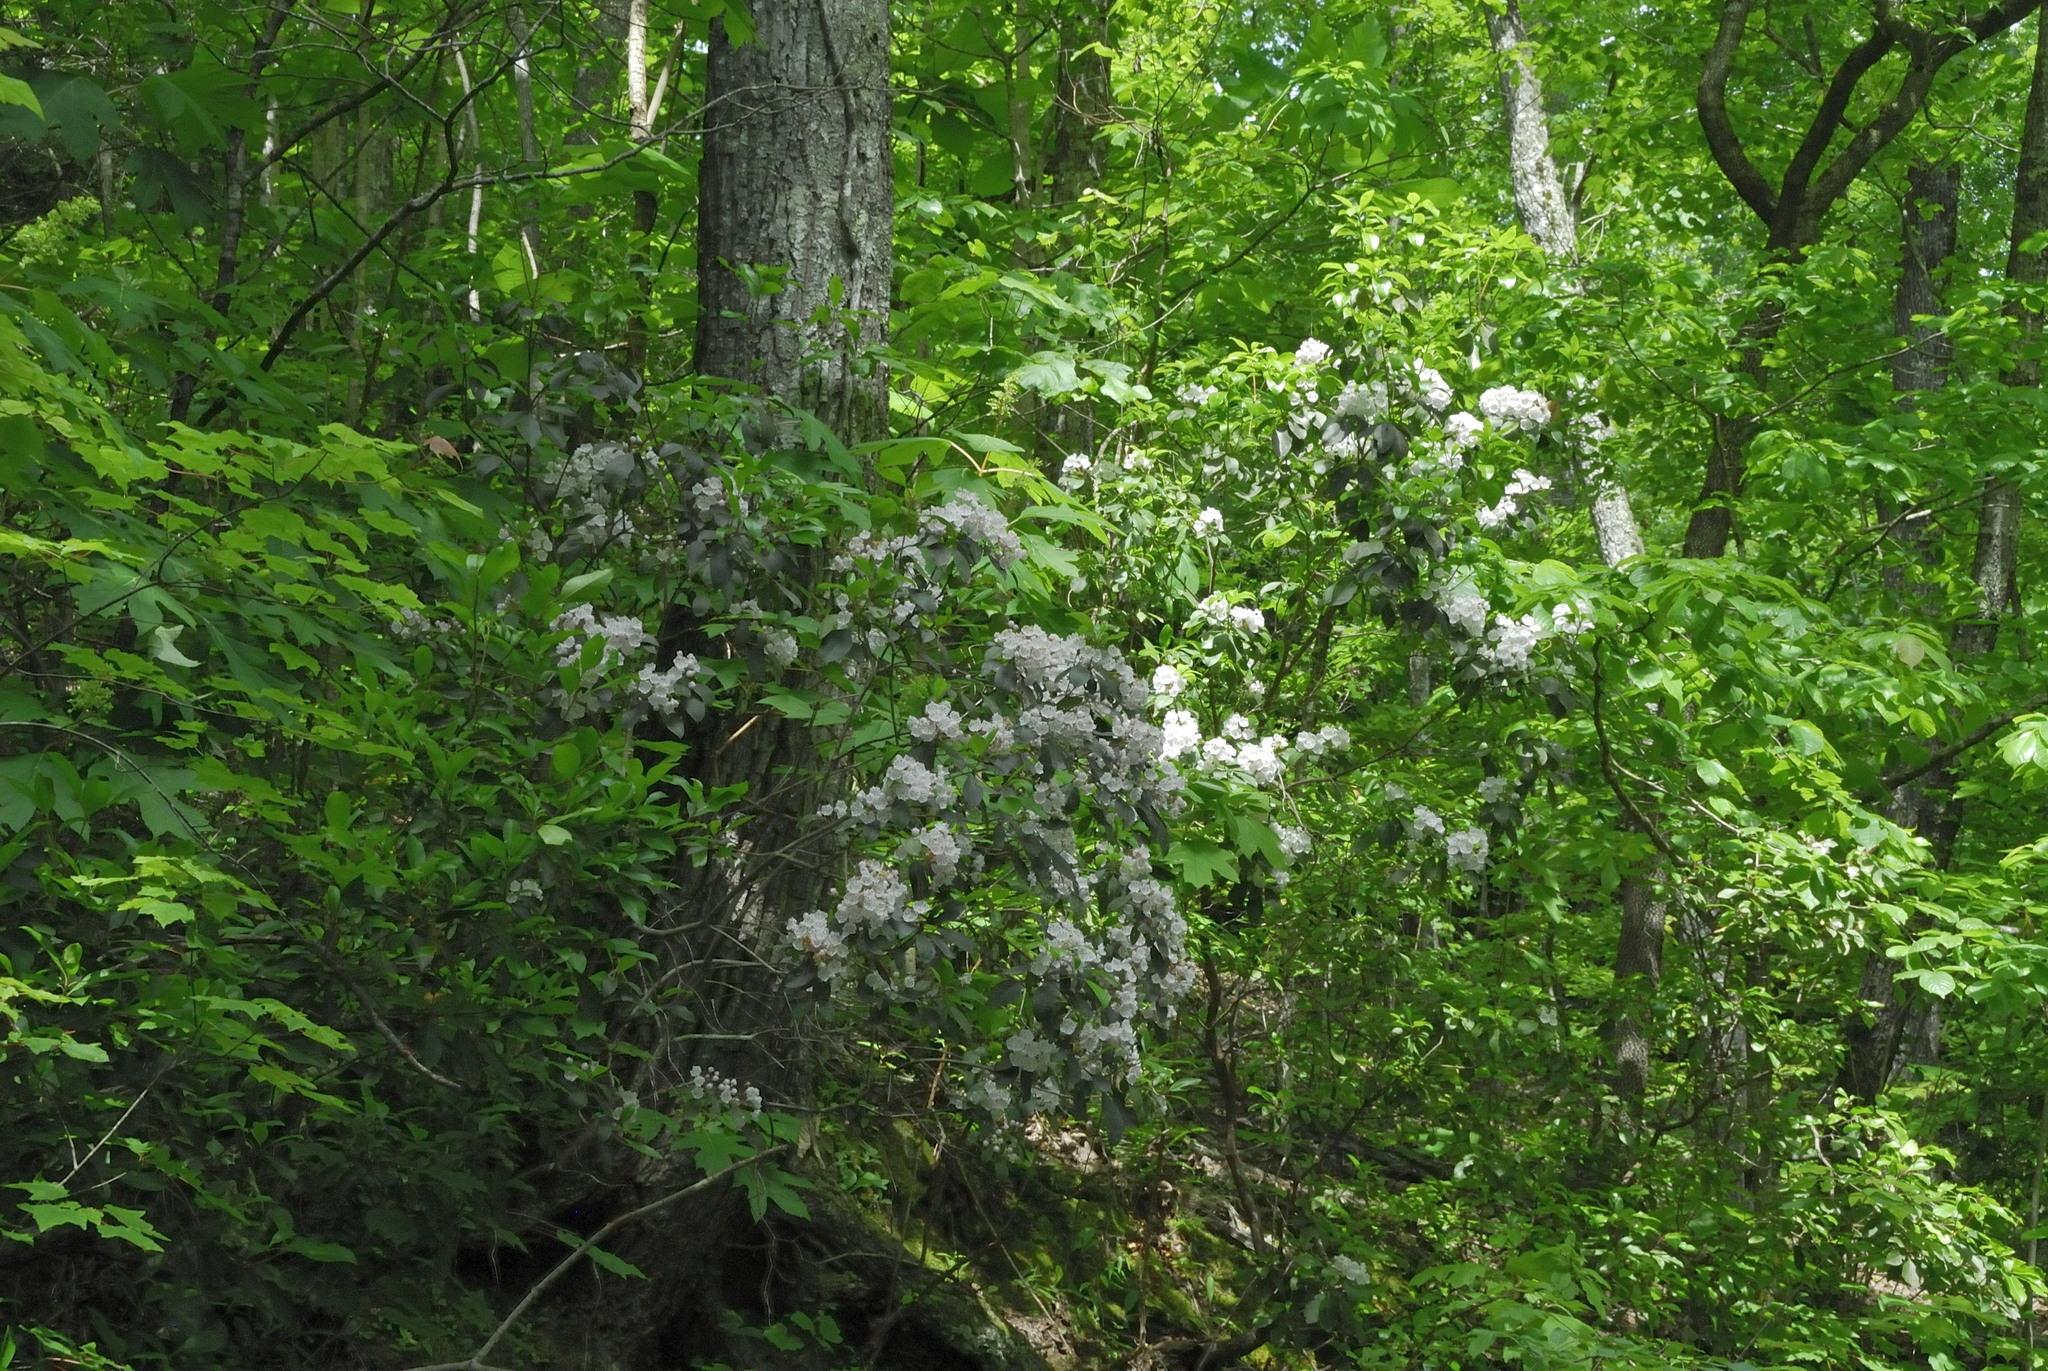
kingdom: Plantae
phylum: Tracheophyta
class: Magnoliopsida
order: Ericales
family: Ericaceae
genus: Kalmia
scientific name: Kalmia latifolia
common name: Mountain-laurel
